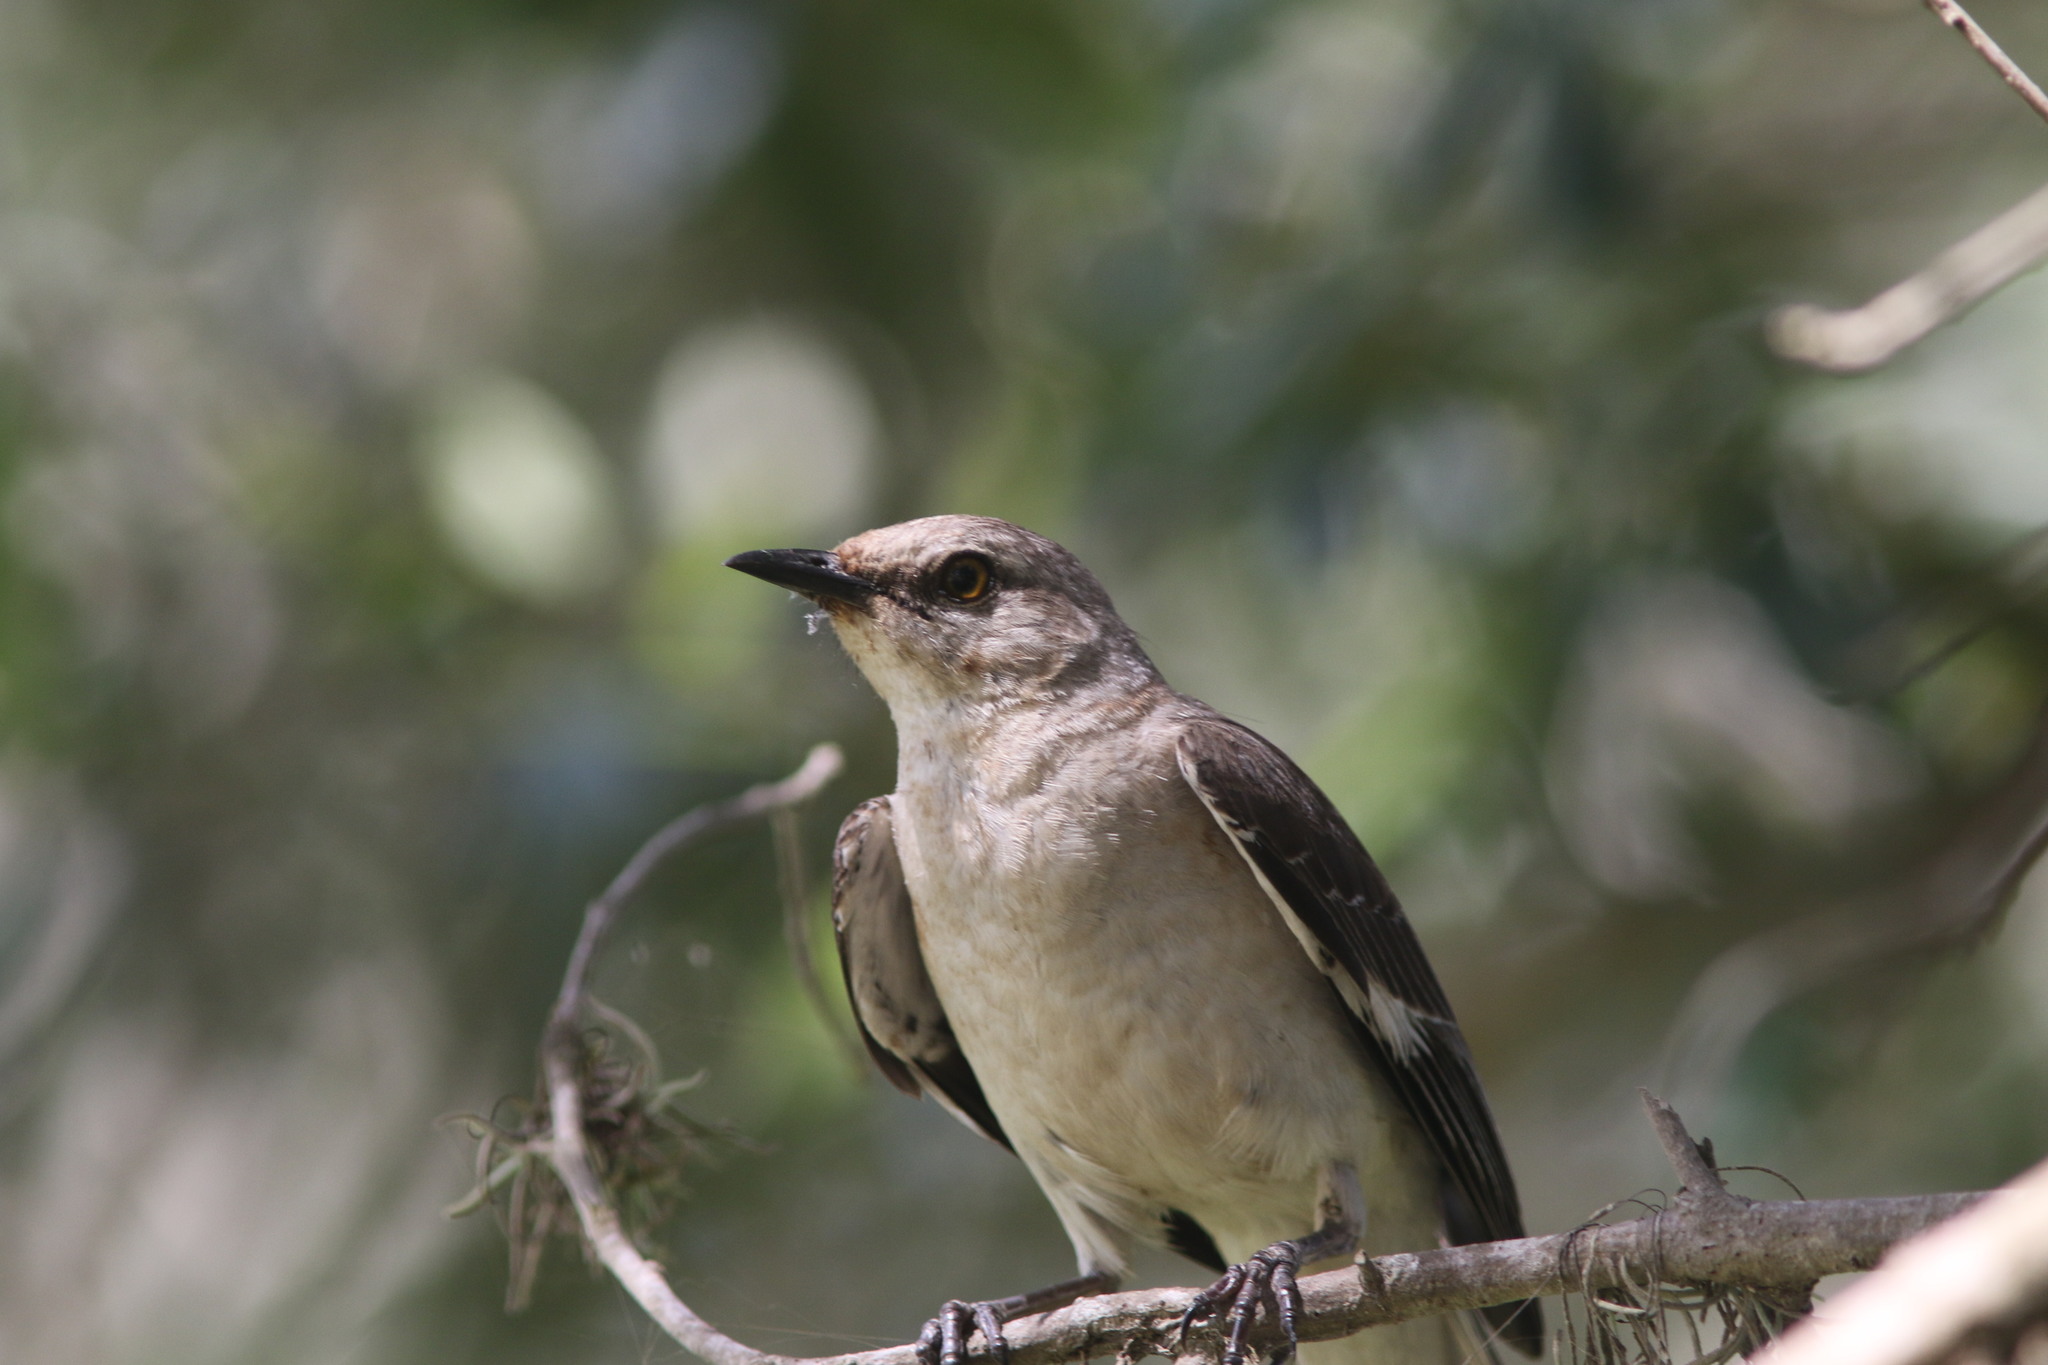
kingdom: Animalia
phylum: Chordata
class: Aves
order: Passeriformes
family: Mimidae
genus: Mimus
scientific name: Mimus polyglottos
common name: Northern mockingbird
